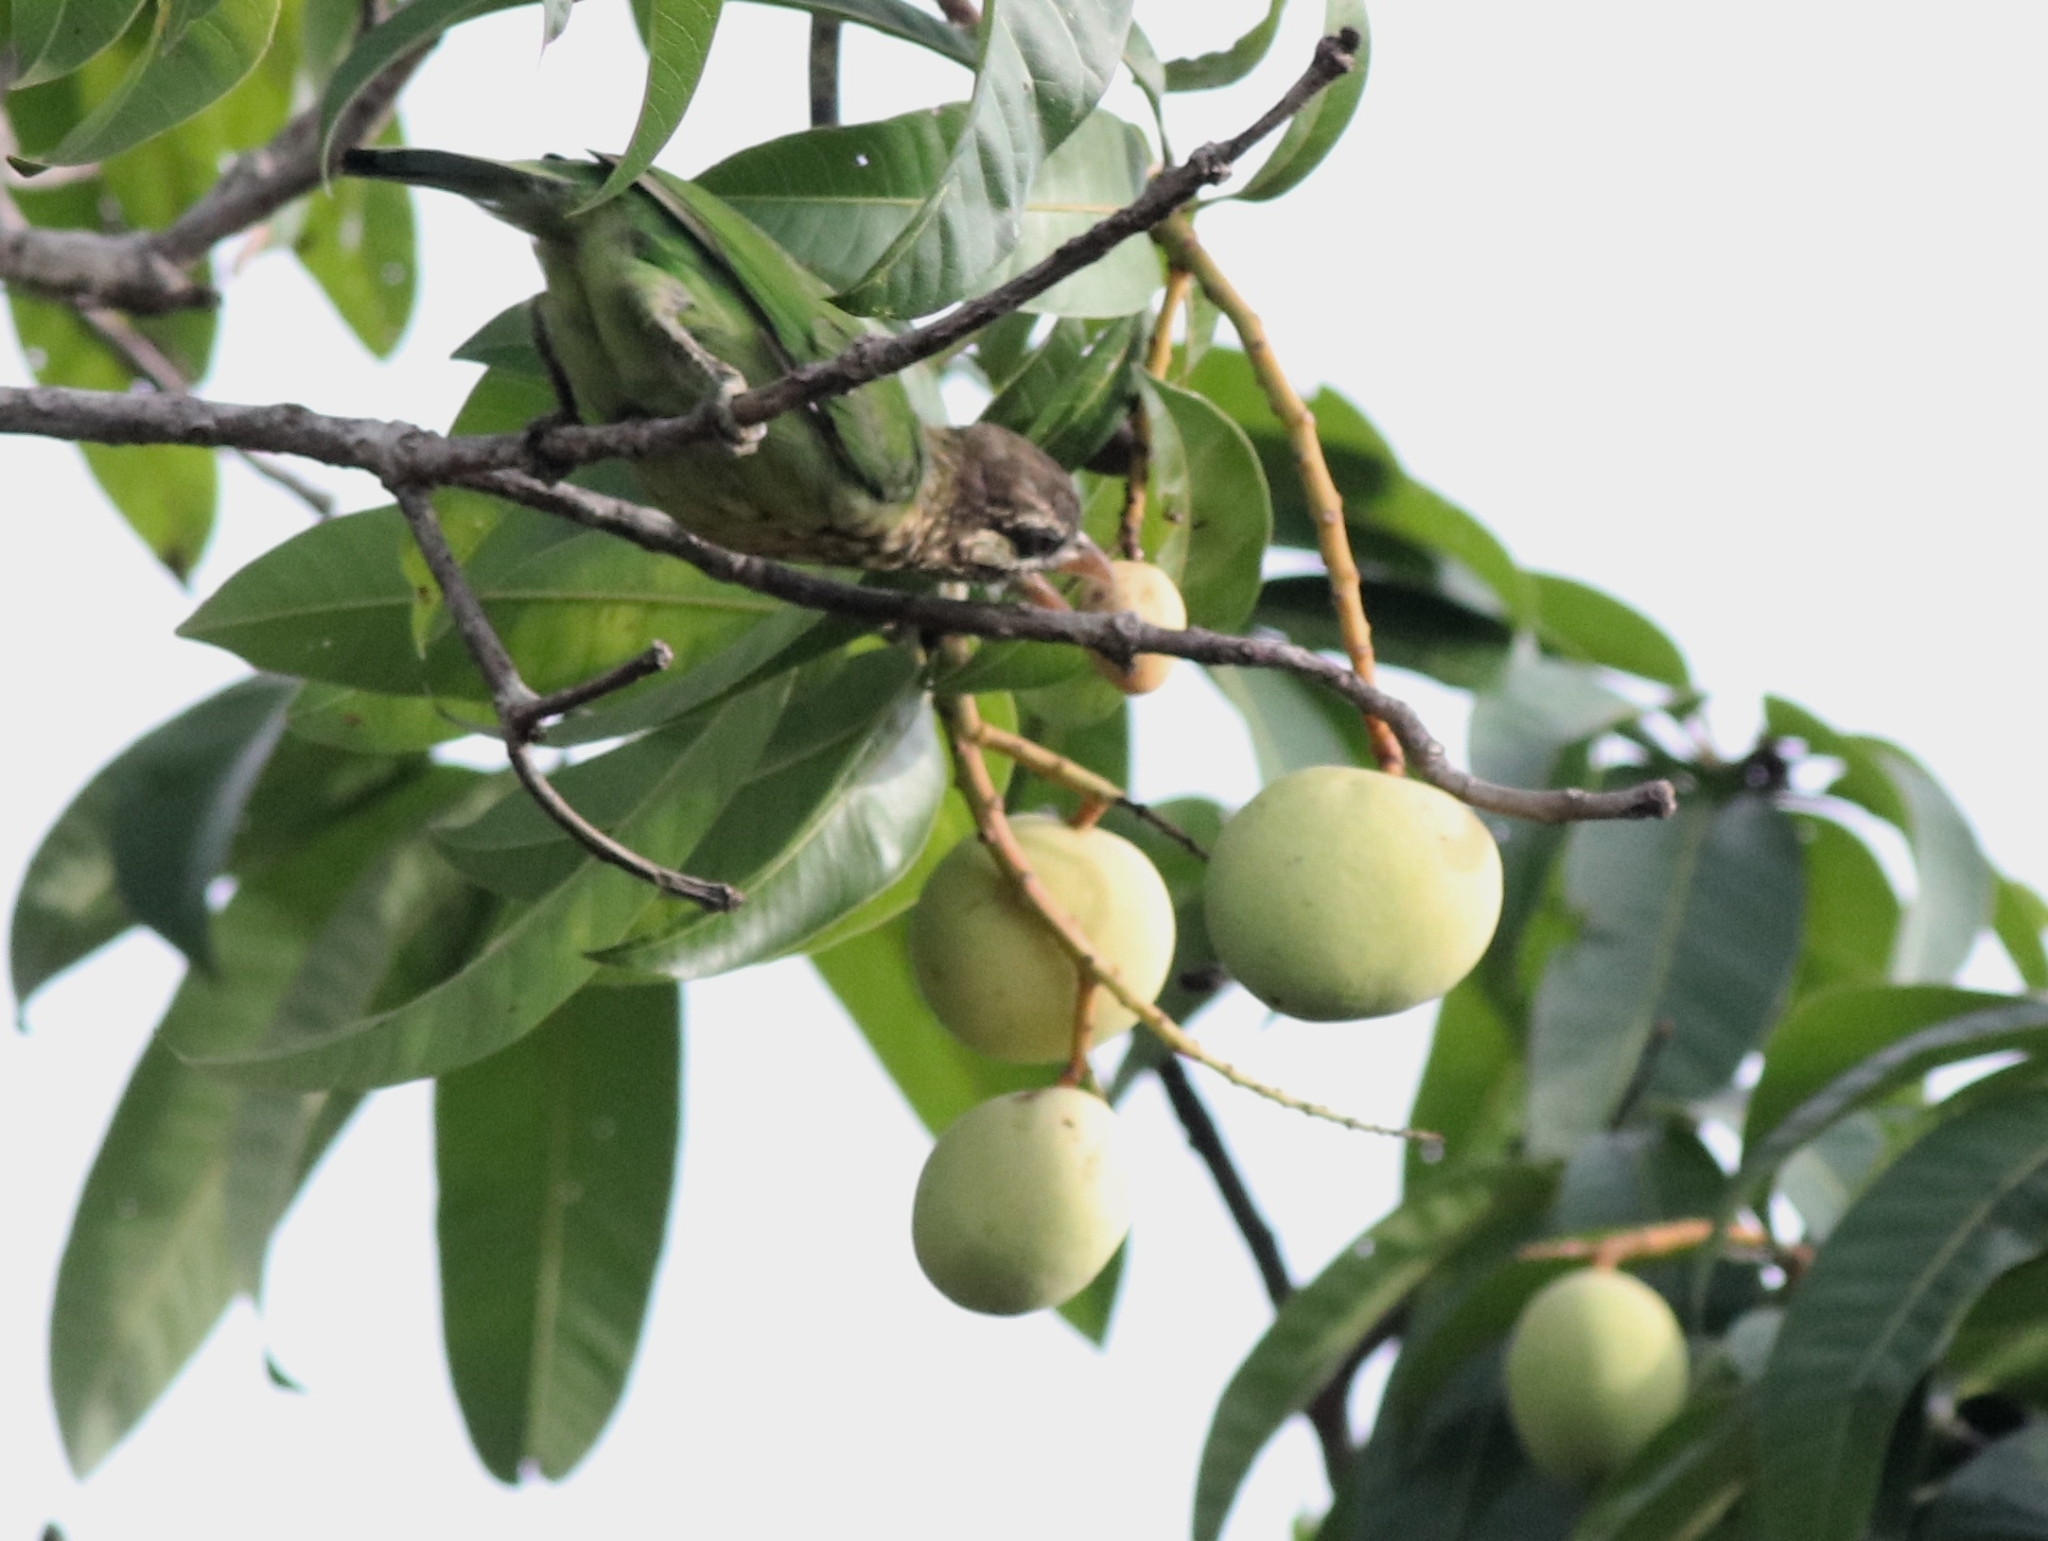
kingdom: Animalia
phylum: Chordata
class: Aves
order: Piciformes
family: Megalaimidae
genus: Psilopogon
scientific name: Psilopogon viridis
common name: White-cheeked barbet
